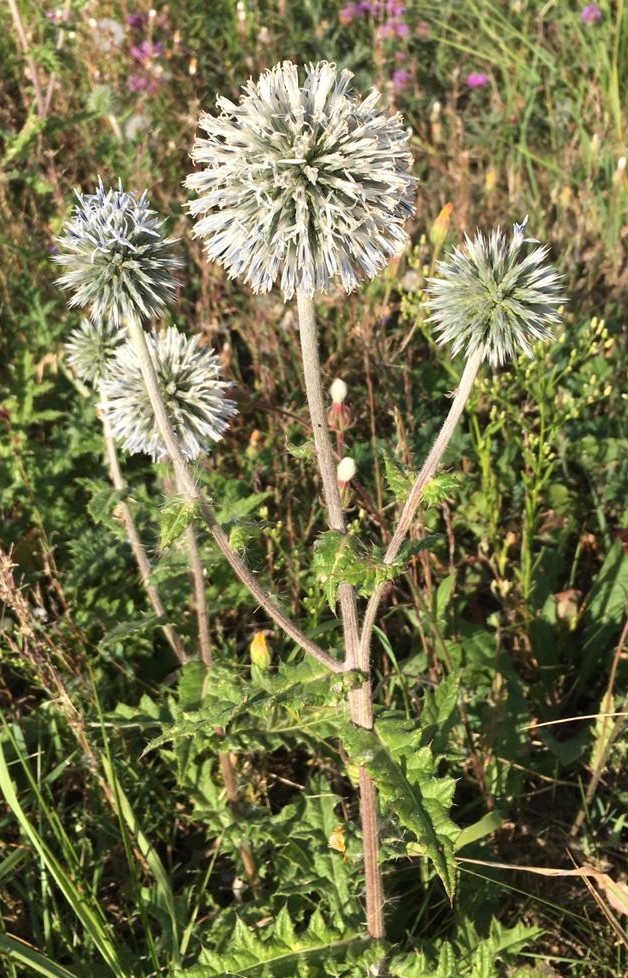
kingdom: Plantae
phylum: Tracheophyta
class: Magnoliopsida
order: Asterales
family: Asteraceae
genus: Echinops
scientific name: Echinops sphaerocephalus
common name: Glandular globe-thistle
